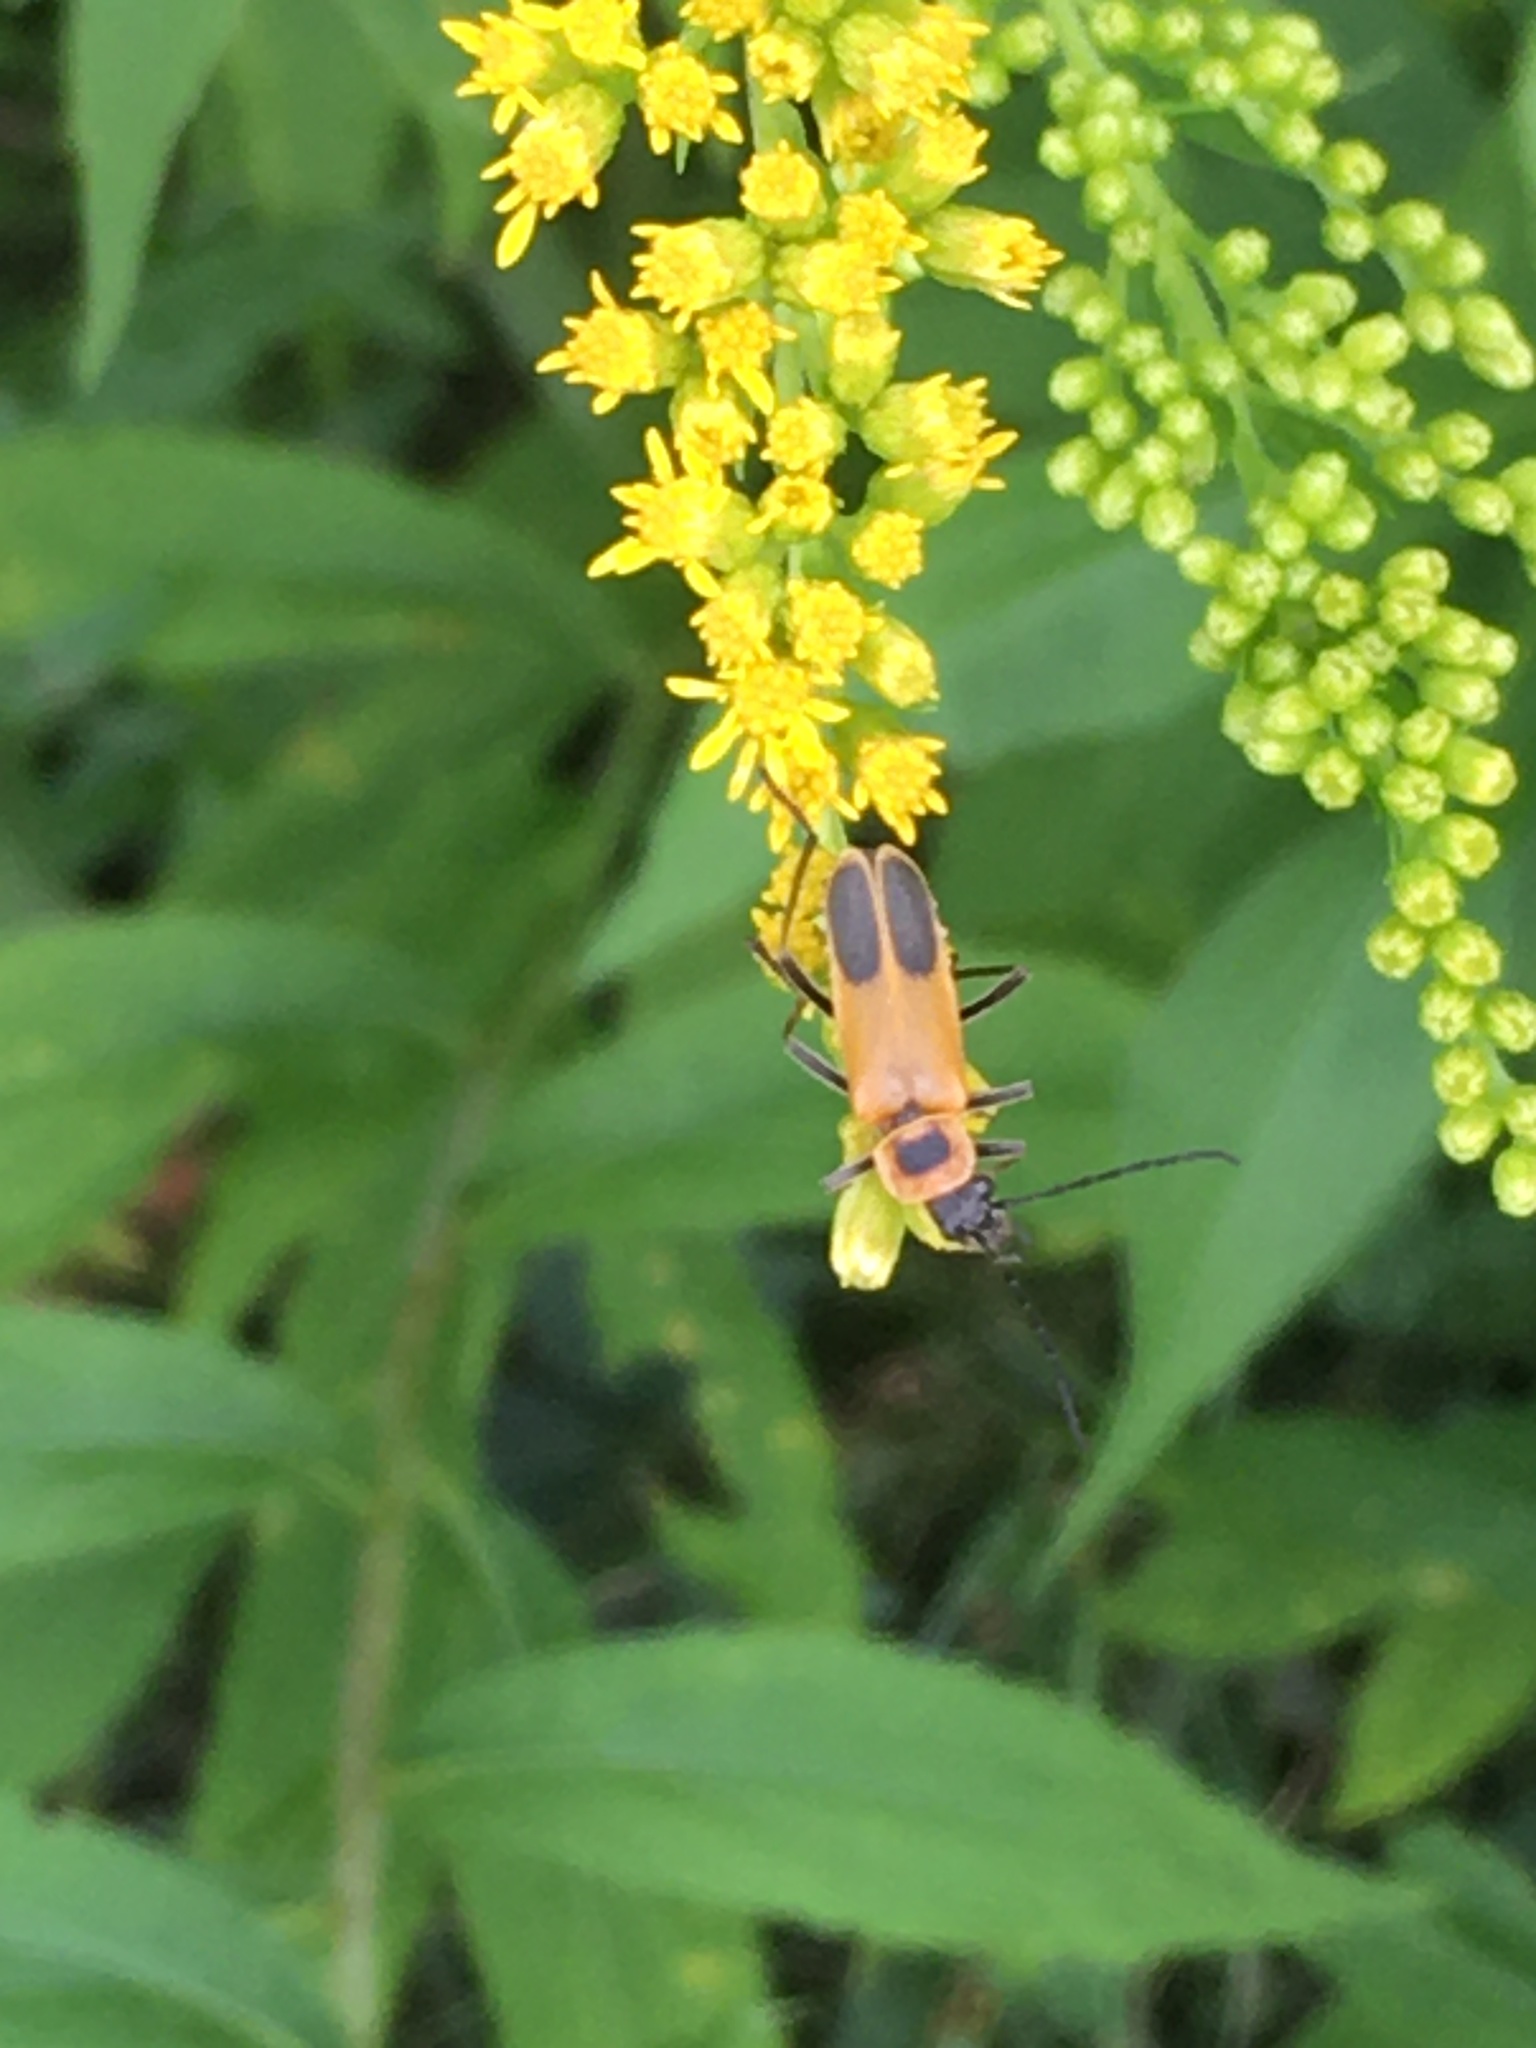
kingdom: Animalia
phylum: Arthropoda
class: Insecta
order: Coleoptera
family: Cantharidae
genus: Chauliognathus
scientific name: Chauliognathus pensylvanicus
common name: Goldenrod soldier beetle
